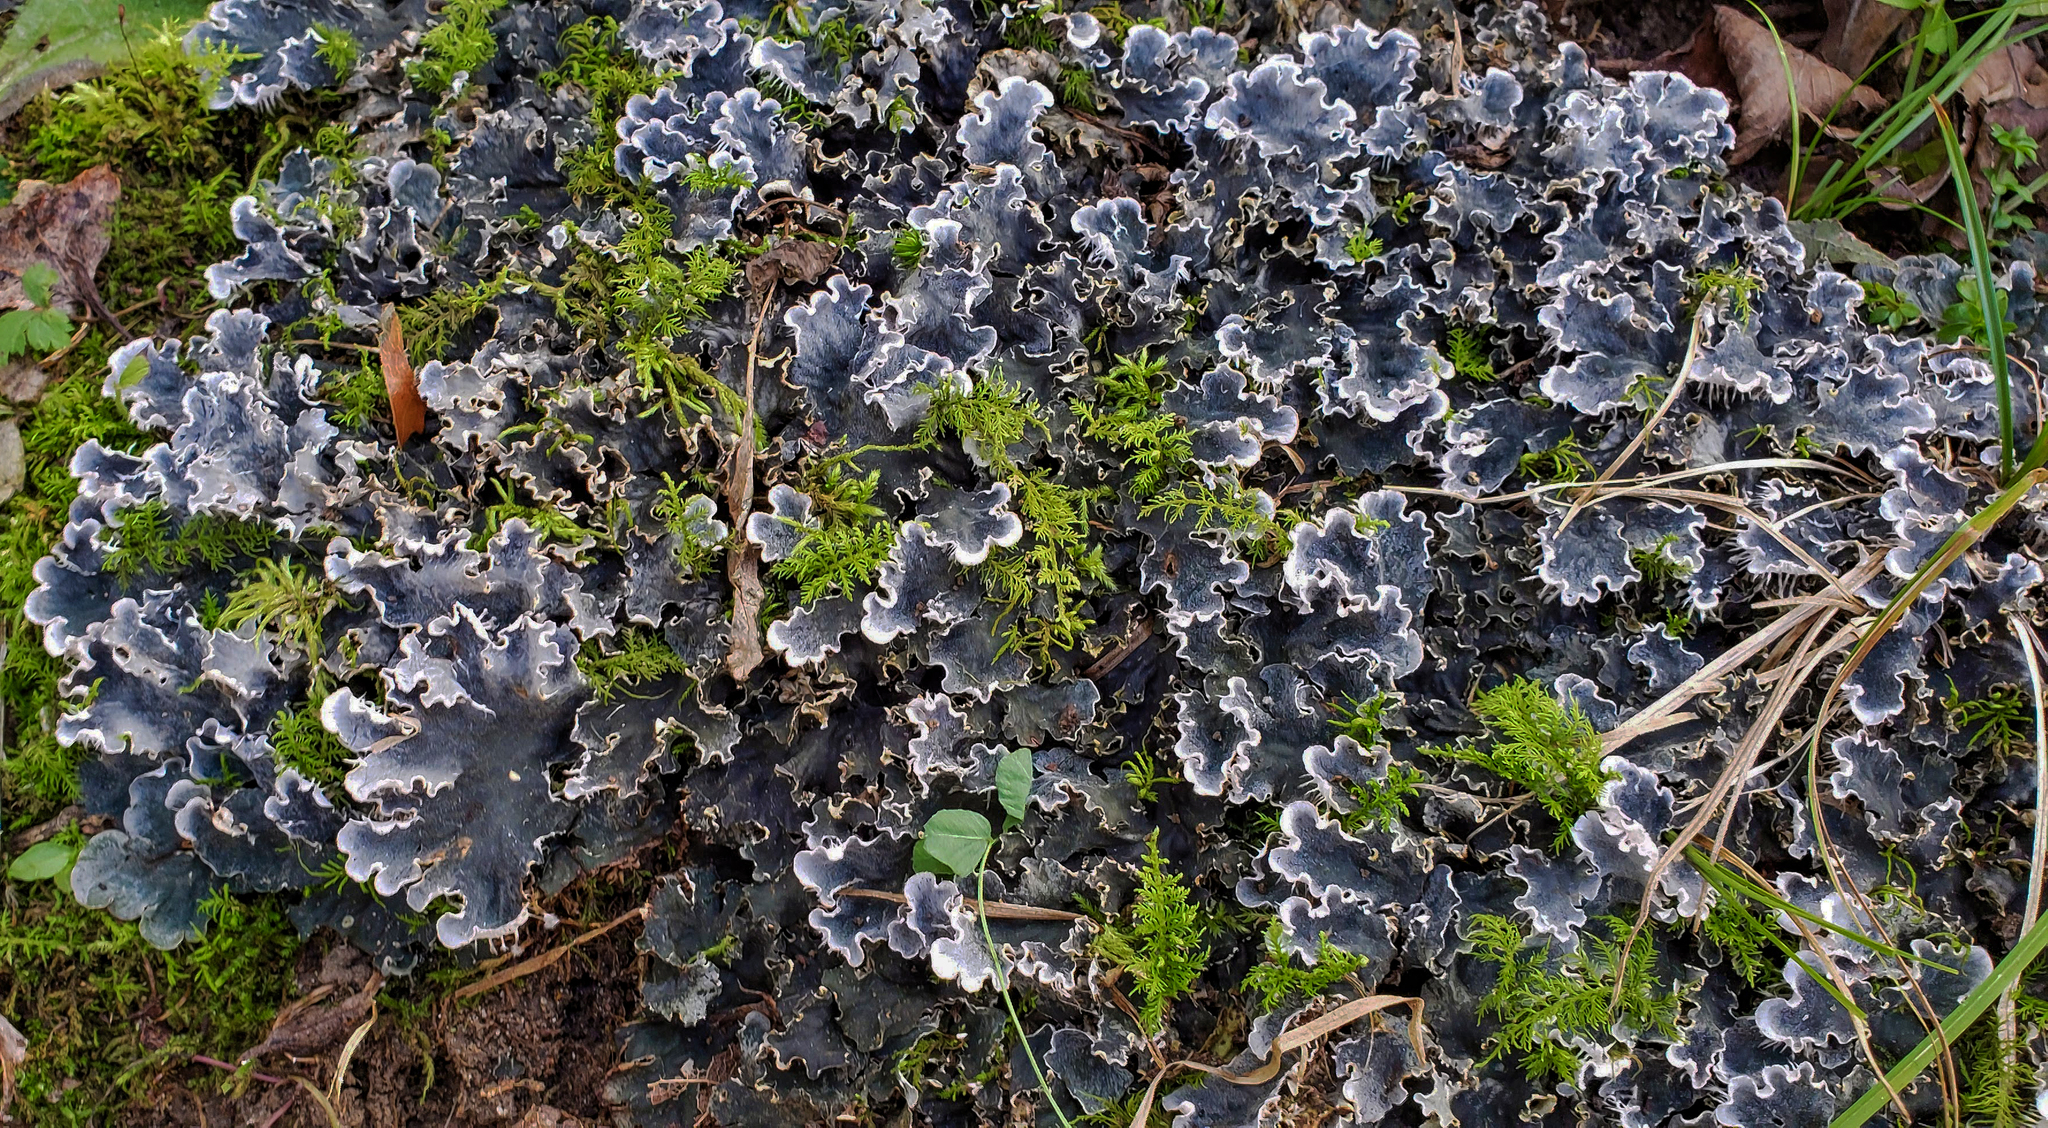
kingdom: Fungi
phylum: Ascomycota
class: Lecanoromycetes
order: Peltigerales
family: Peltigeraceae
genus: Peltigera
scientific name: Peltigera praetextata
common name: Scaly dog-lichen
